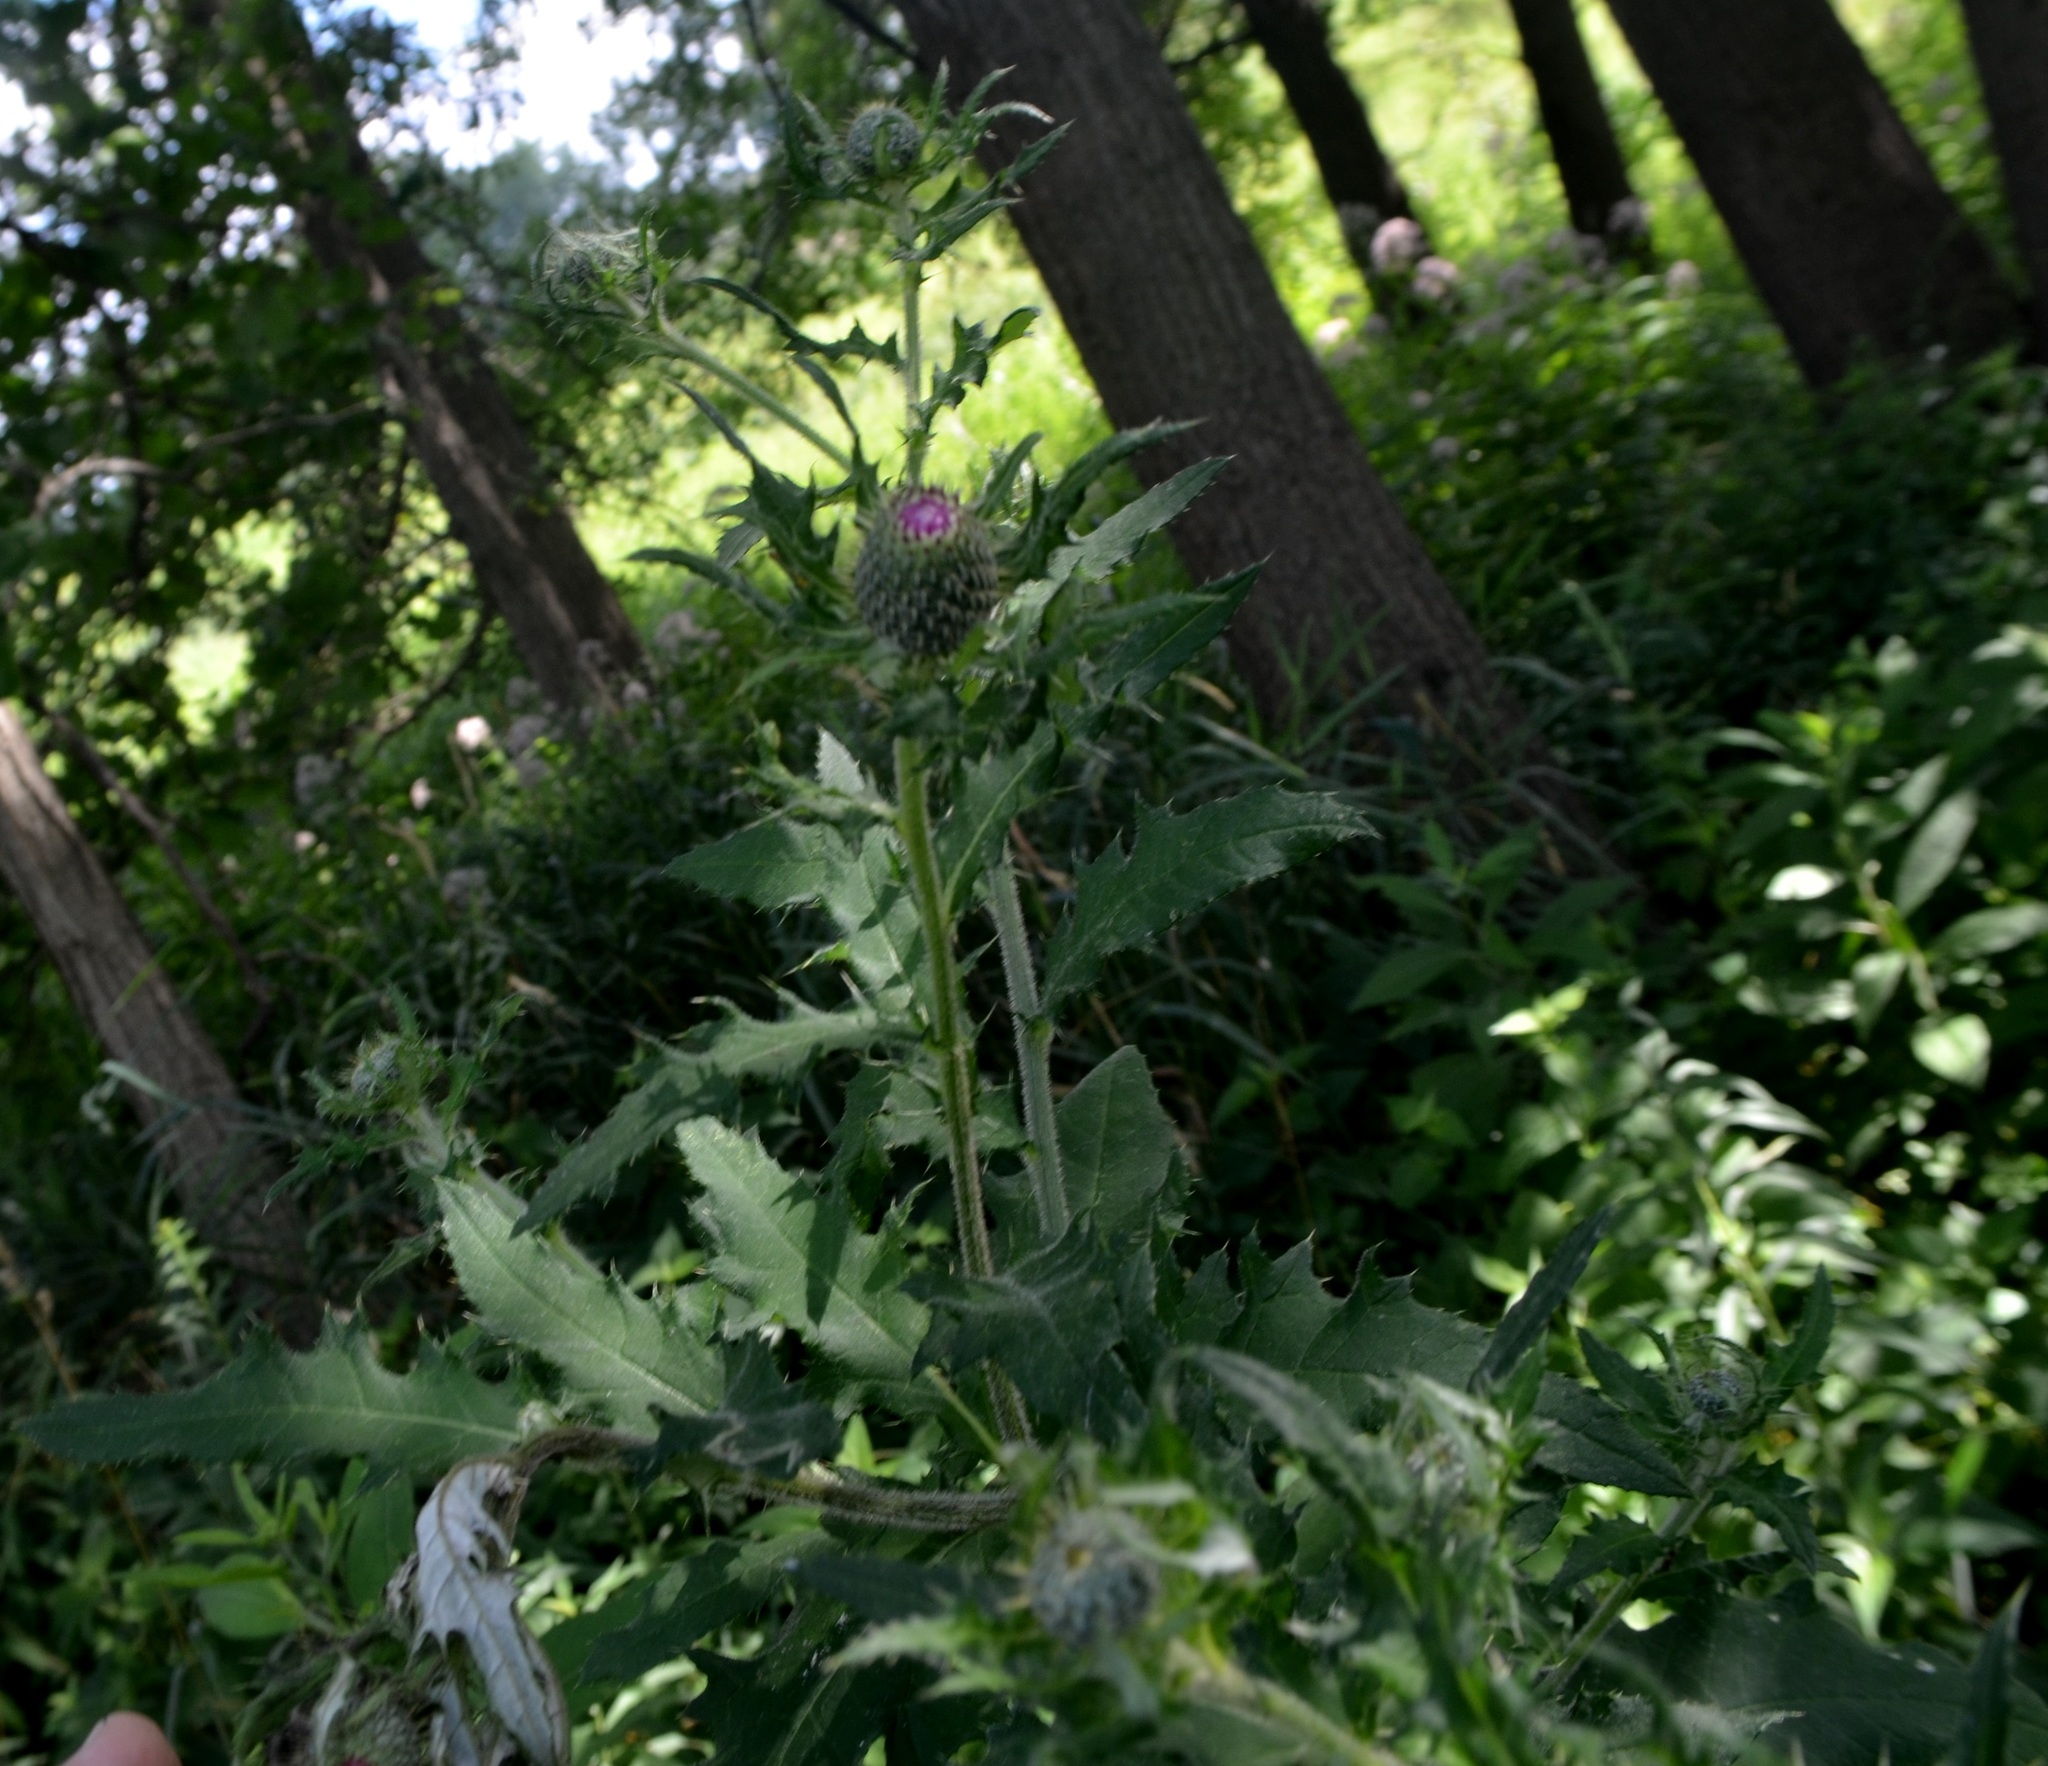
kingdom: Plantae
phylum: Tracheophyta
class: Magnoliopsida
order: Asterales
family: Asteraceae
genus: Cirsium
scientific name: Cirsium altissimum
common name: Roadside thistle
